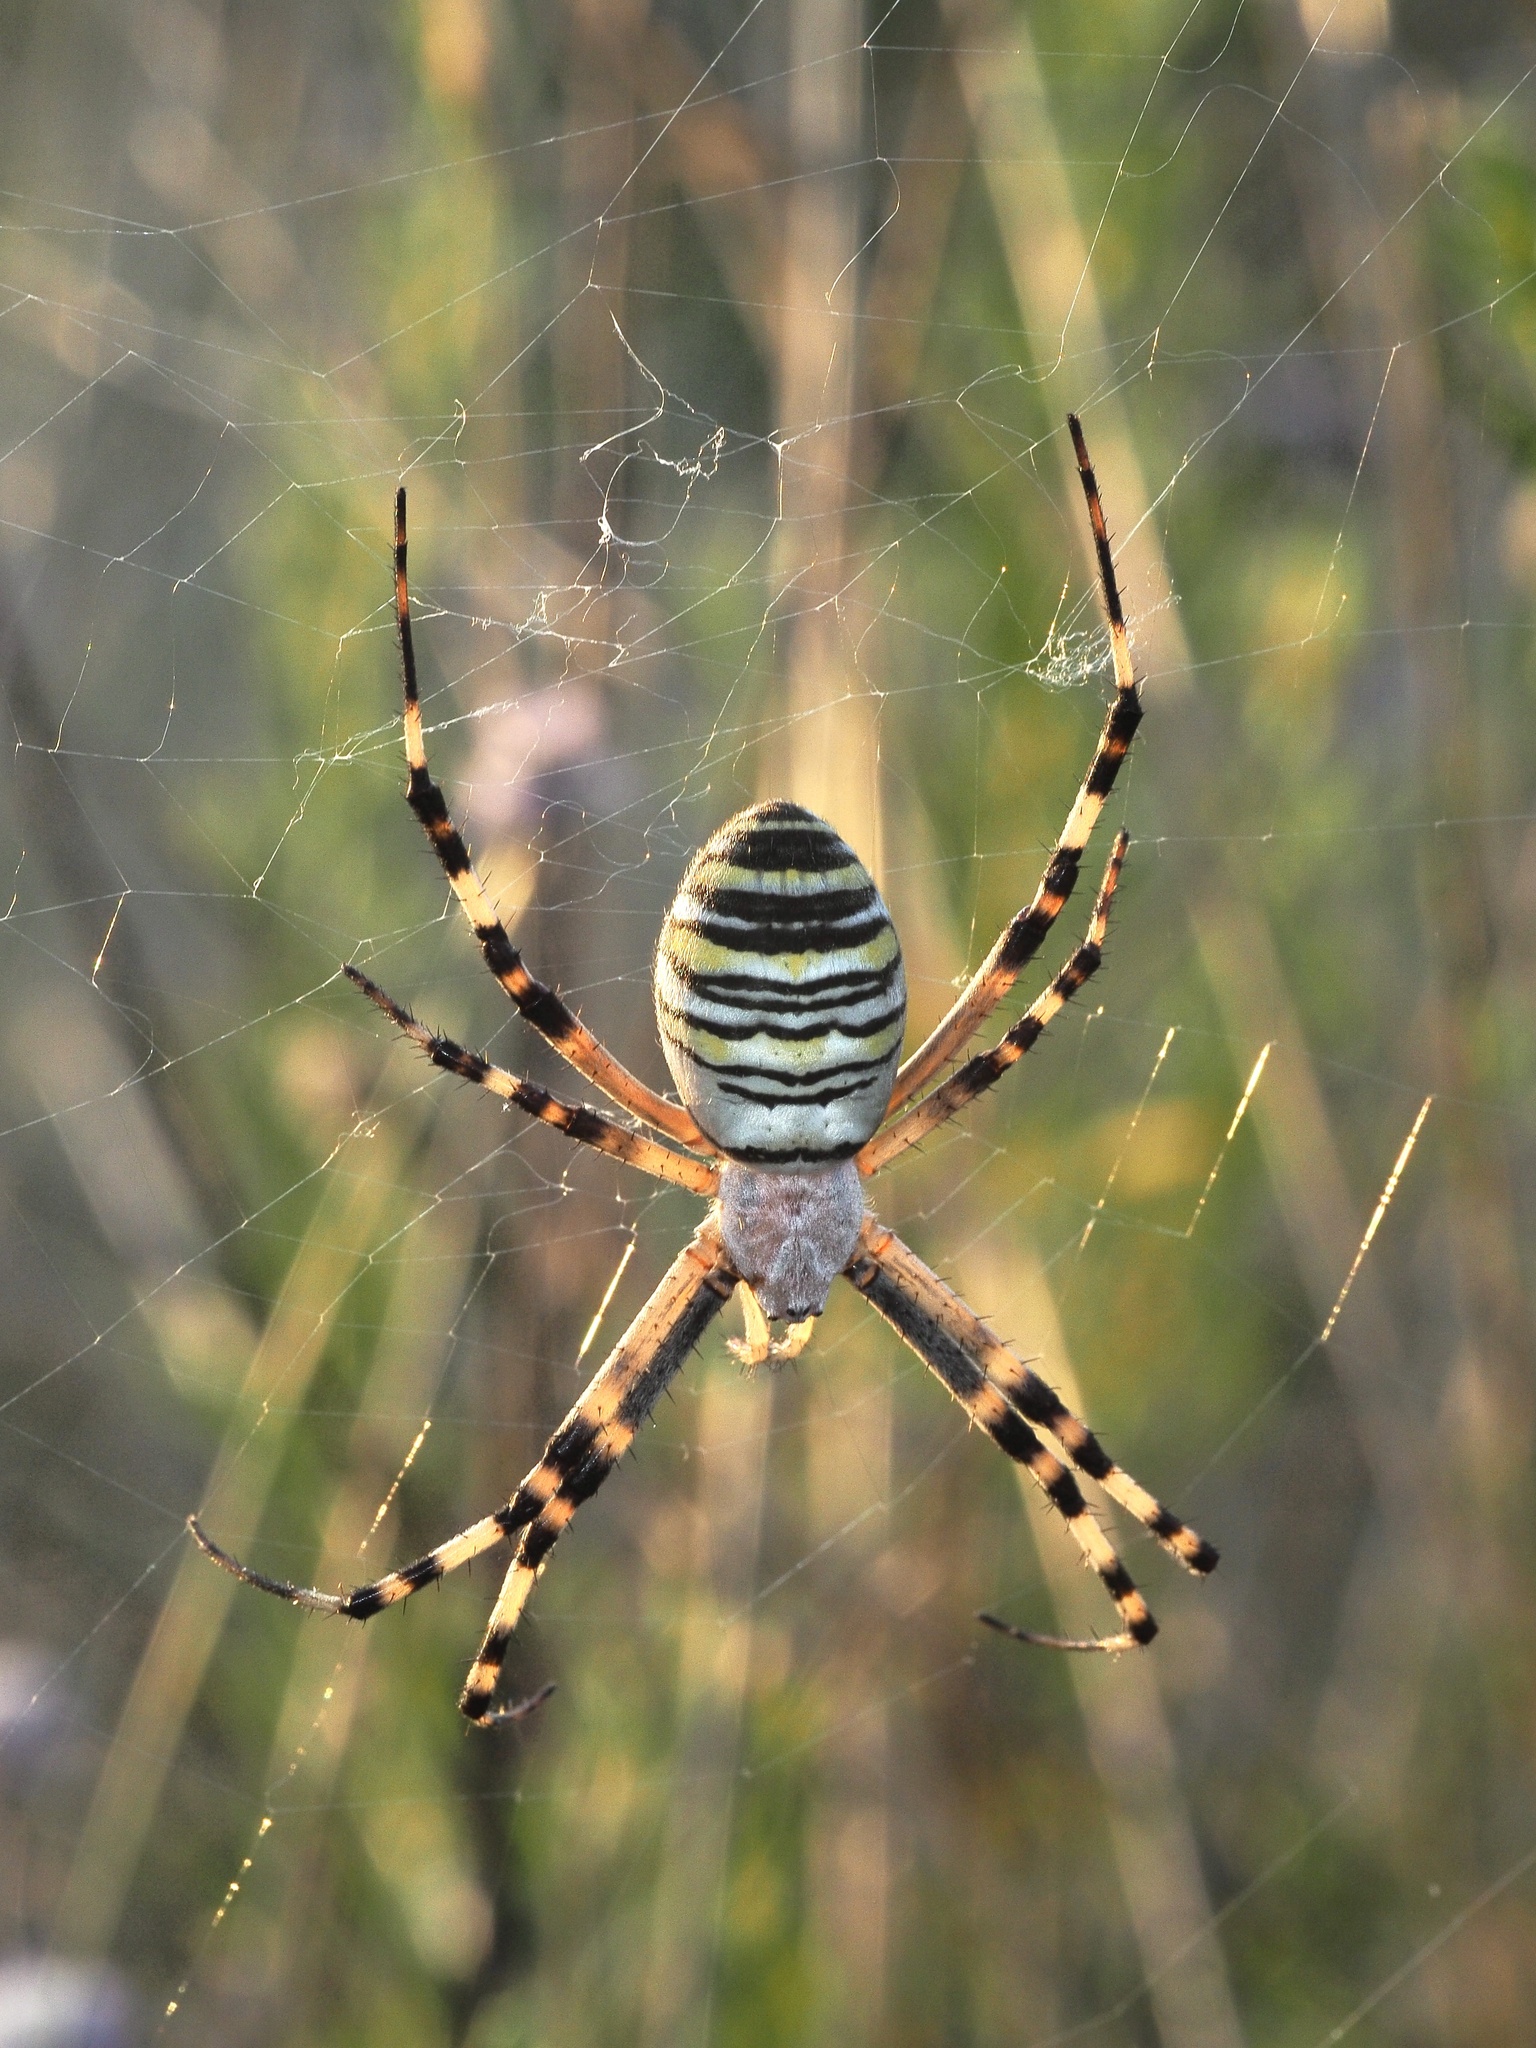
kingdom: Animalia
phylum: Arthropoda
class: Arachnida
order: Araneae
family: Araneidae
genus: Argiope
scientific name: Argiope bruennichi
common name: Wasp spider
